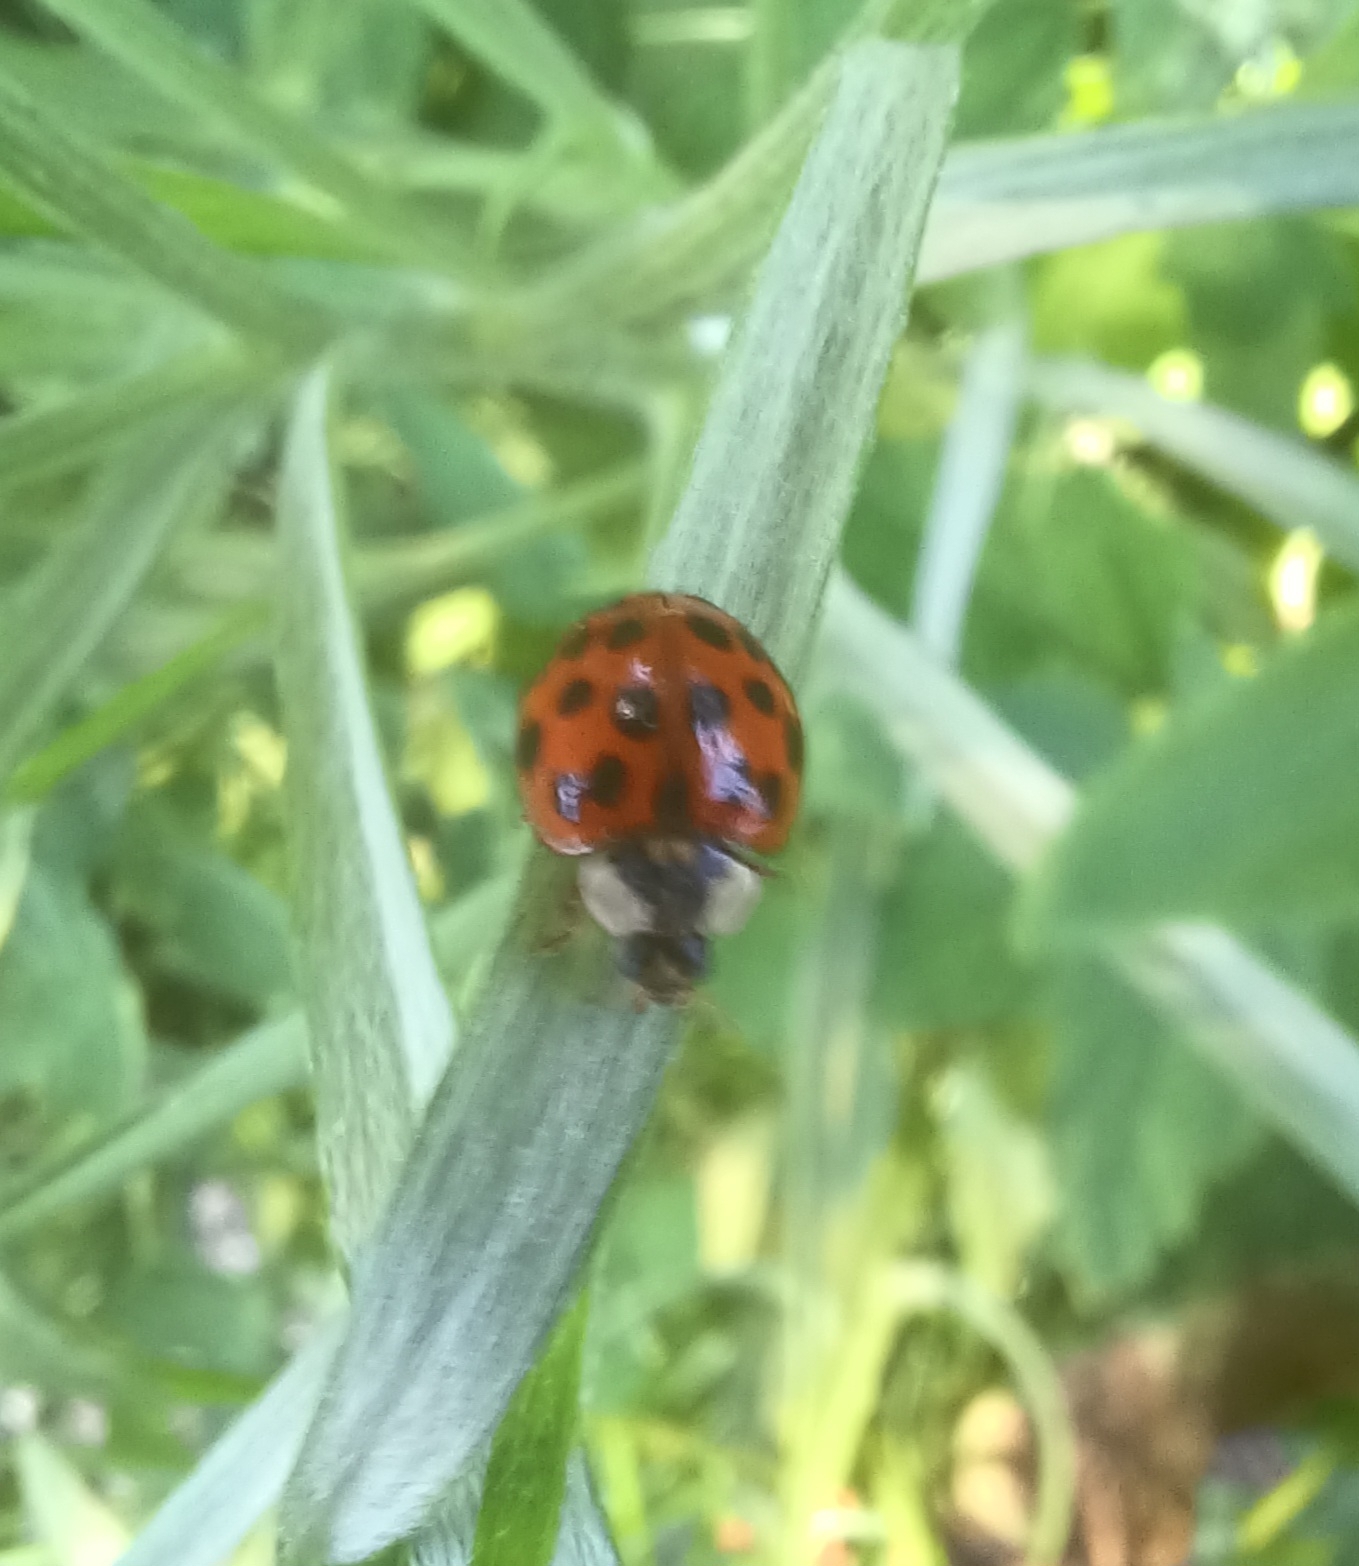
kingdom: Animalia
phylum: Arthropoda
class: Insecta
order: Coleoptera
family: Coccinellidae
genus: Harmonia
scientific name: Harmonia axyridis
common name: Harlequin ladybird
